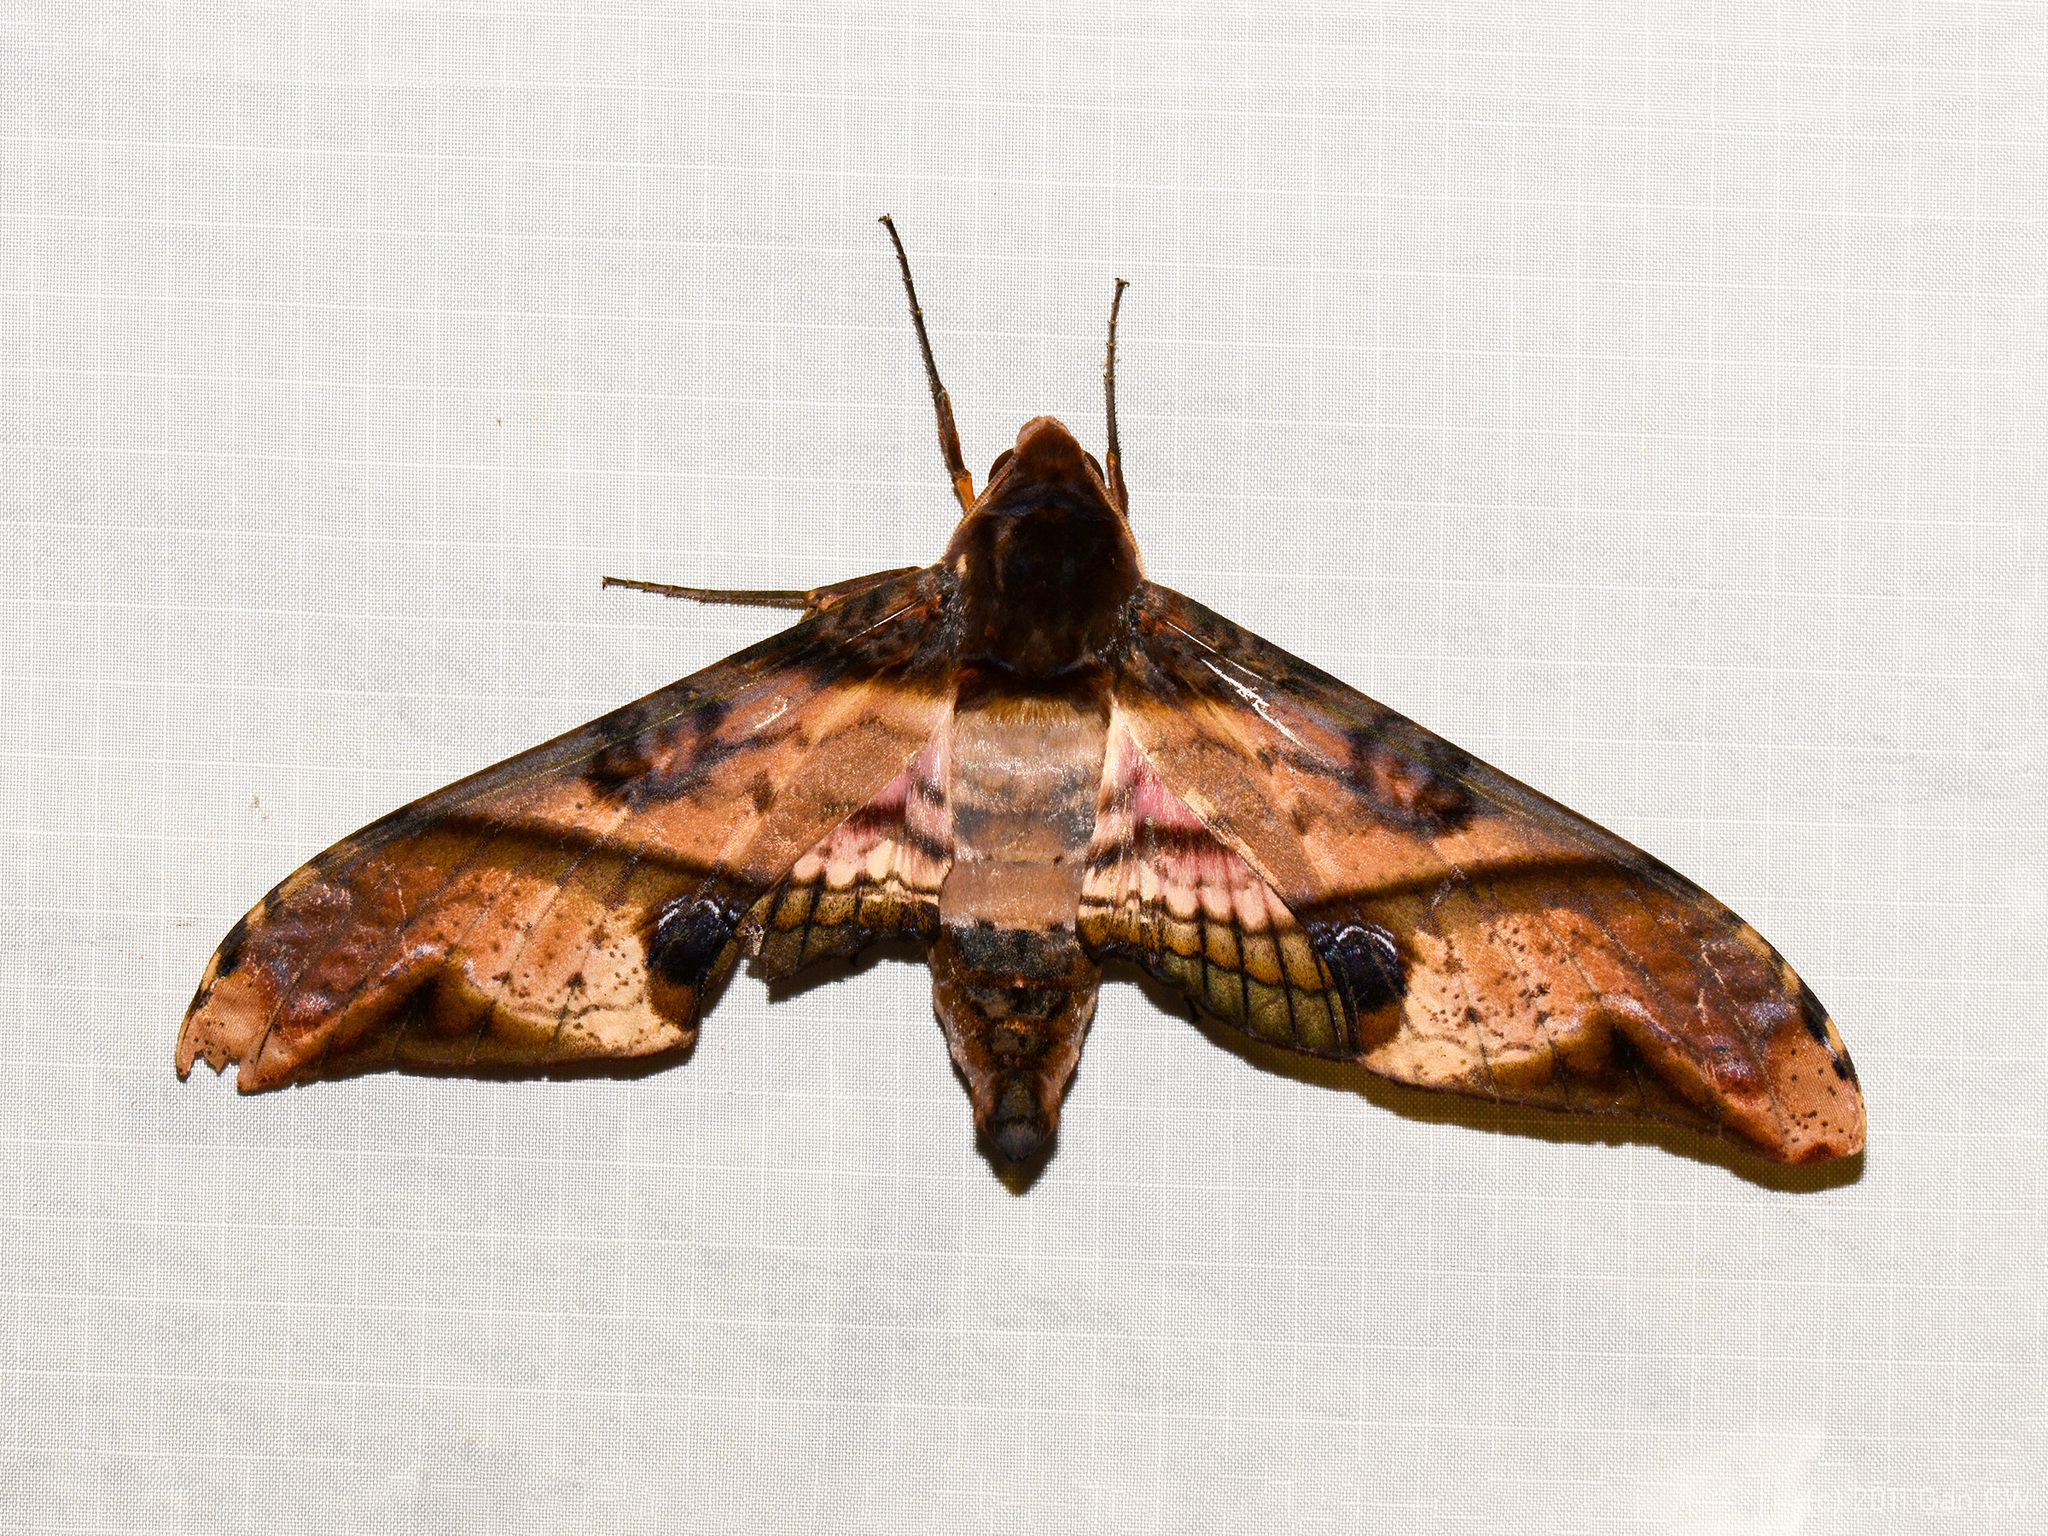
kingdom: Animalia
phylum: Arthropoda
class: Insecta
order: Lepidoptera
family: Sphingidae
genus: Amplypterus
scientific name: Amplypterus panopus
